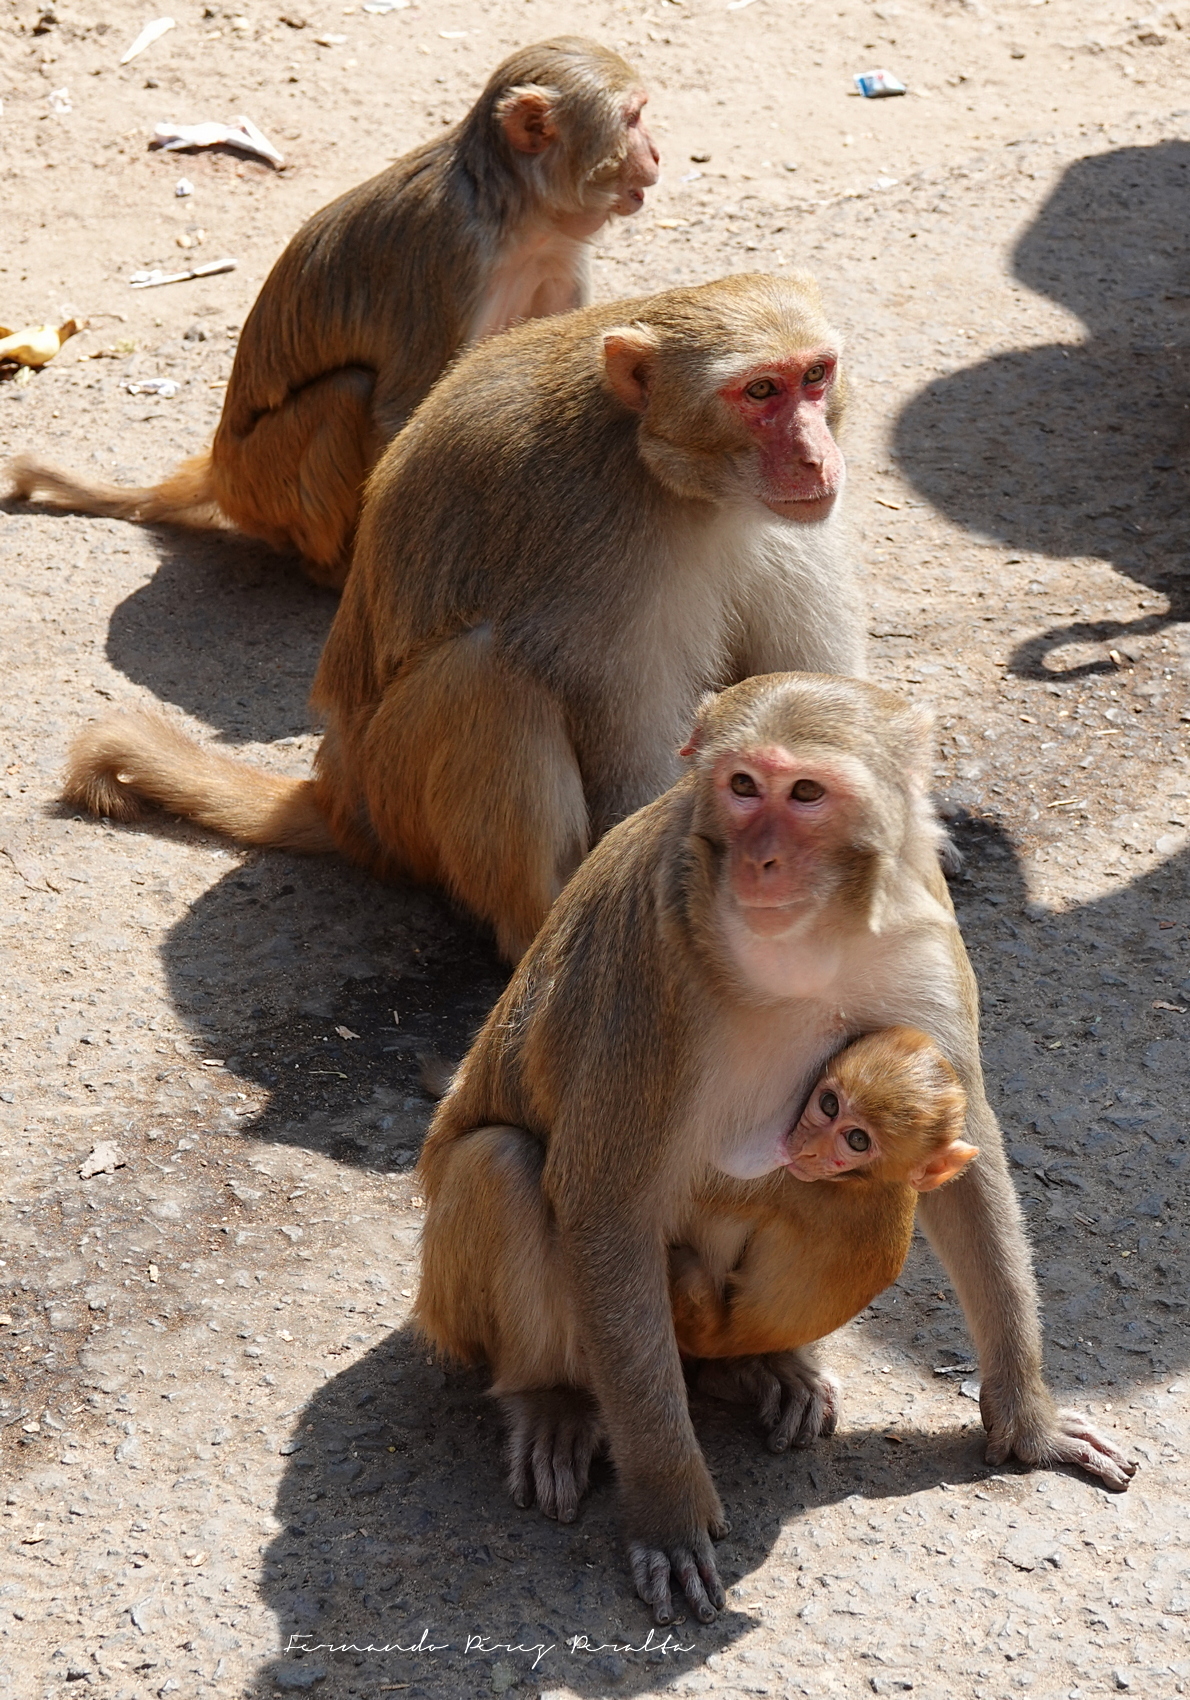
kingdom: Animalia
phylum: Chordata
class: Mammalia
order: Primates
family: Cercopithecidae
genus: Macaca
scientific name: Macaca mulatta
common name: Rhesus monkey
